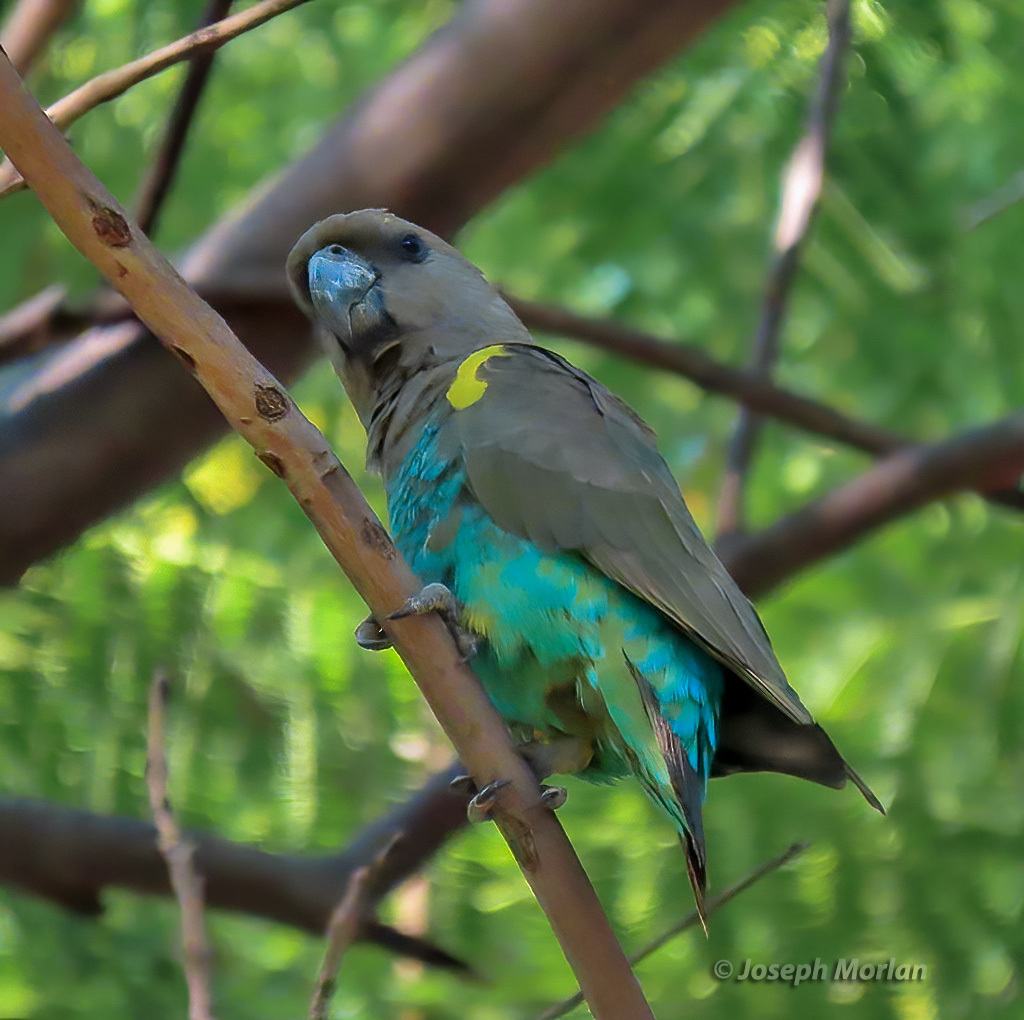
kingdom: Animalia
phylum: Chordata
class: Aves
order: Psittaciformes
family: Psittacidae
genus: Poicephalus
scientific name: Poicephalus meyeri
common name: Meyer's parrot
